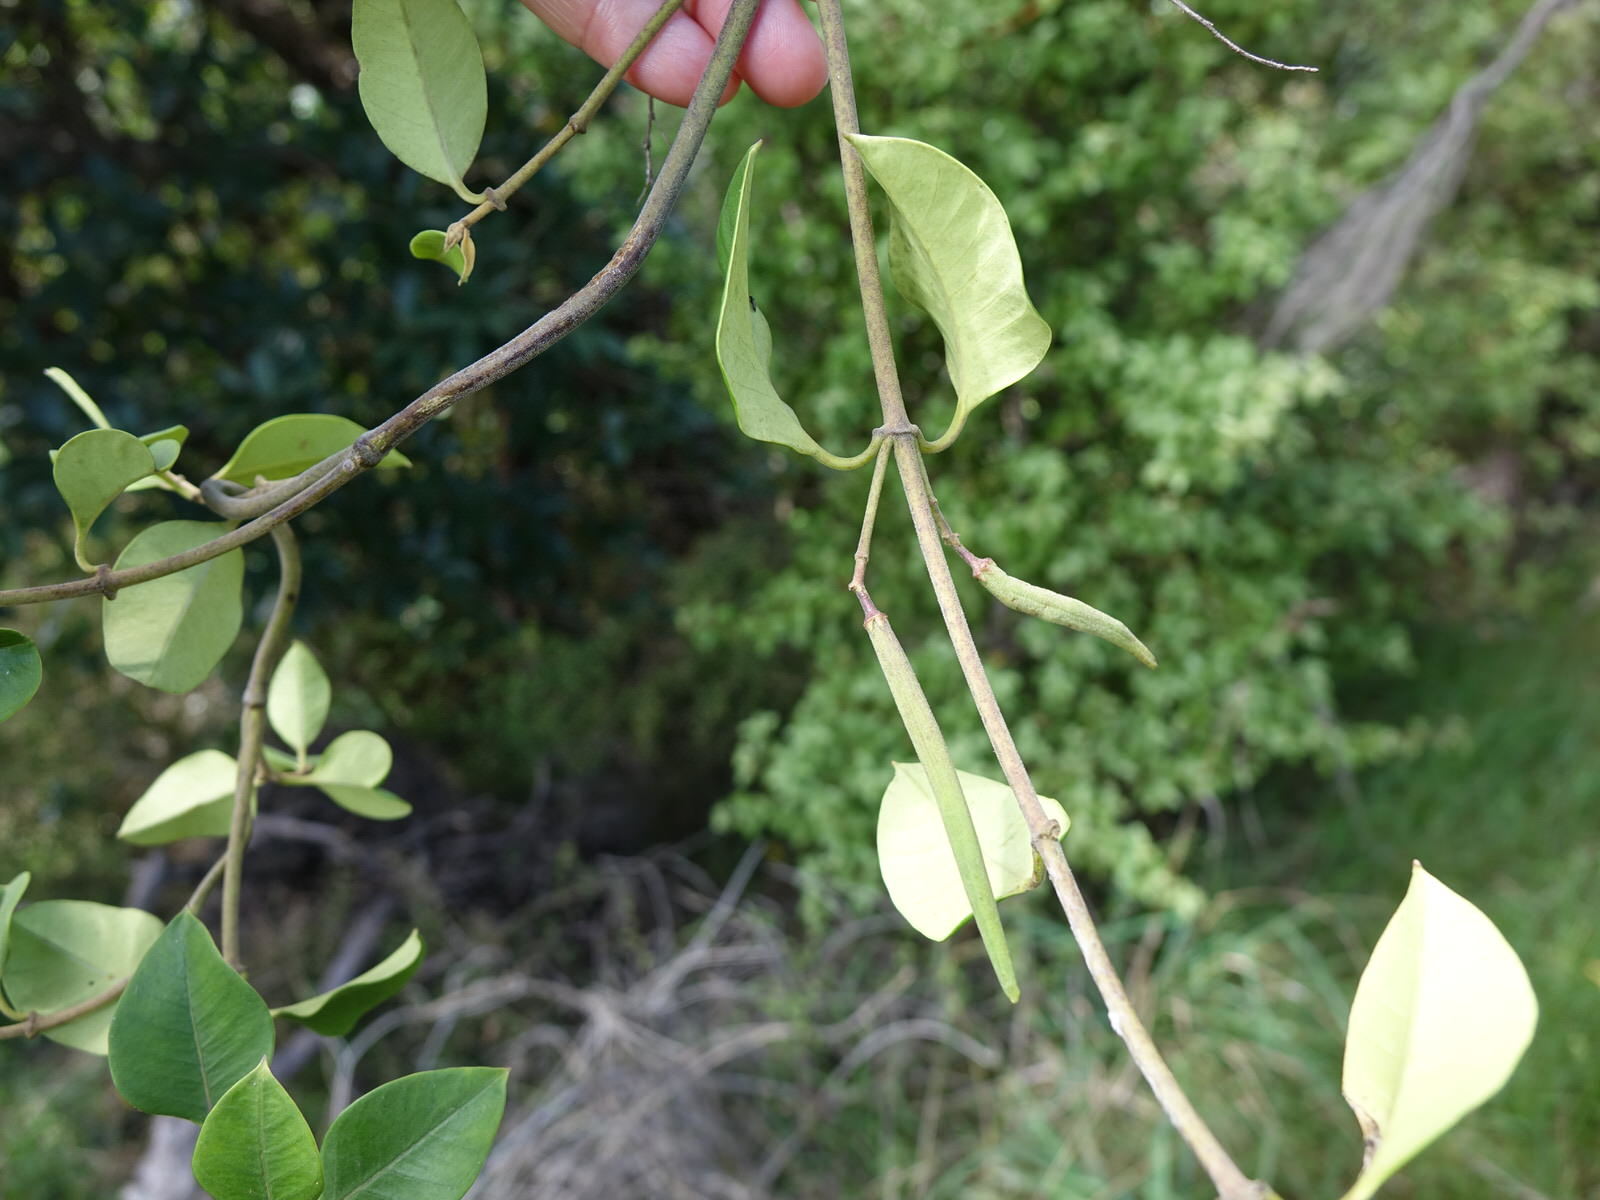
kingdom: Plantae
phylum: Tracheophyta
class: Magnoliopsida
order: Gentianales
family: Apocynaceae
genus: Parsonsia
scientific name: Parsonsia heterophylla
